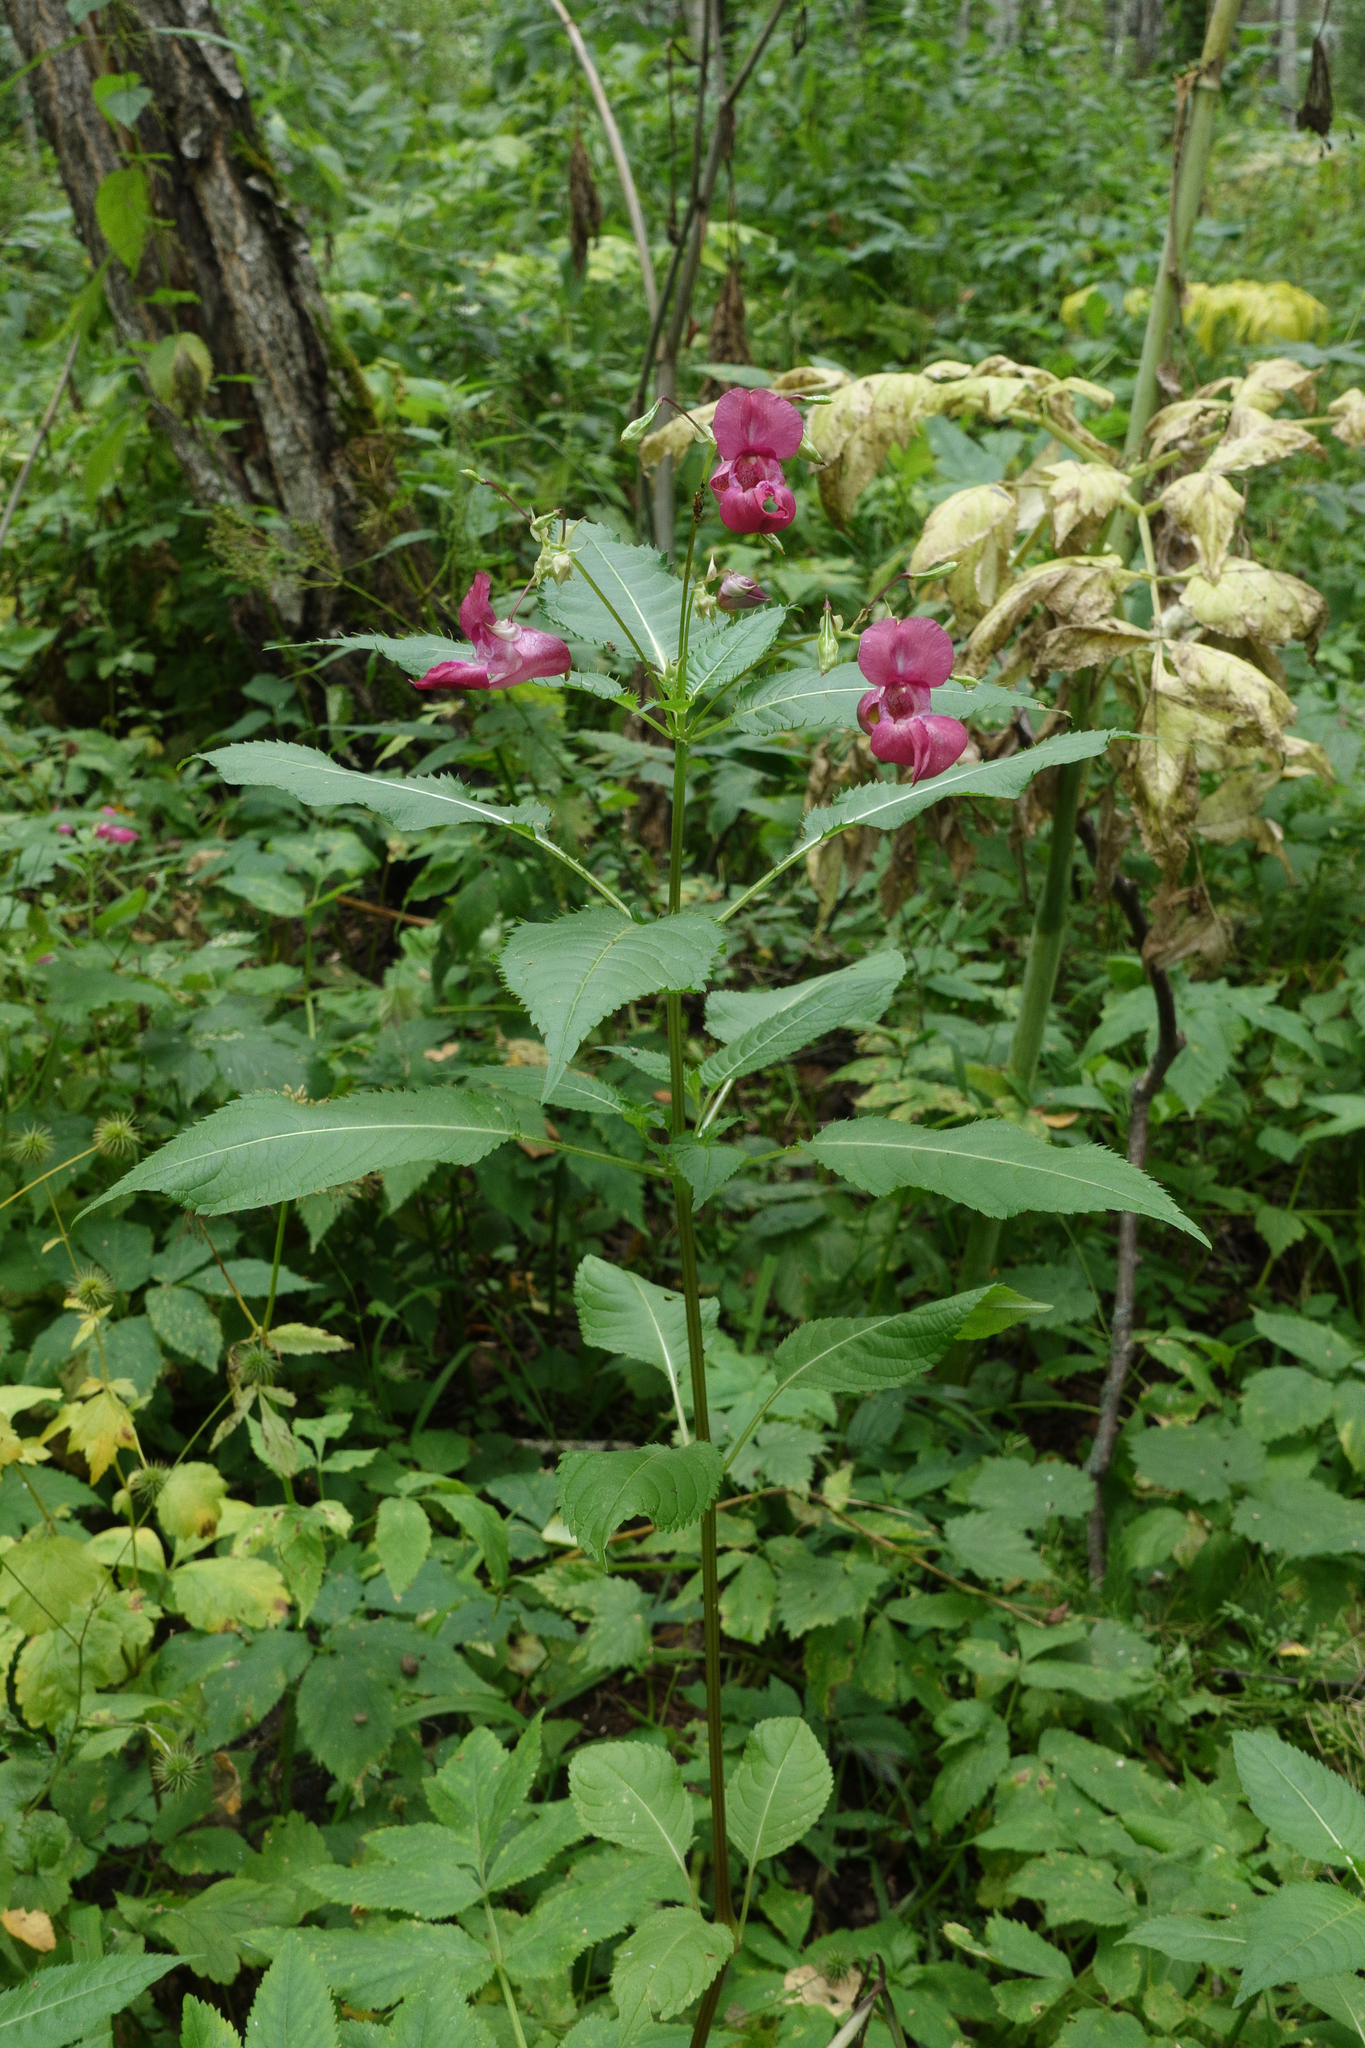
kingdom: Plantae
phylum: Tracheophyta
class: Magnoliopsida
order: Ericales
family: Balsaminaceae
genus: Impatiens
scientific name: Impatiens glandulifera
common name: Himalayan balsam
